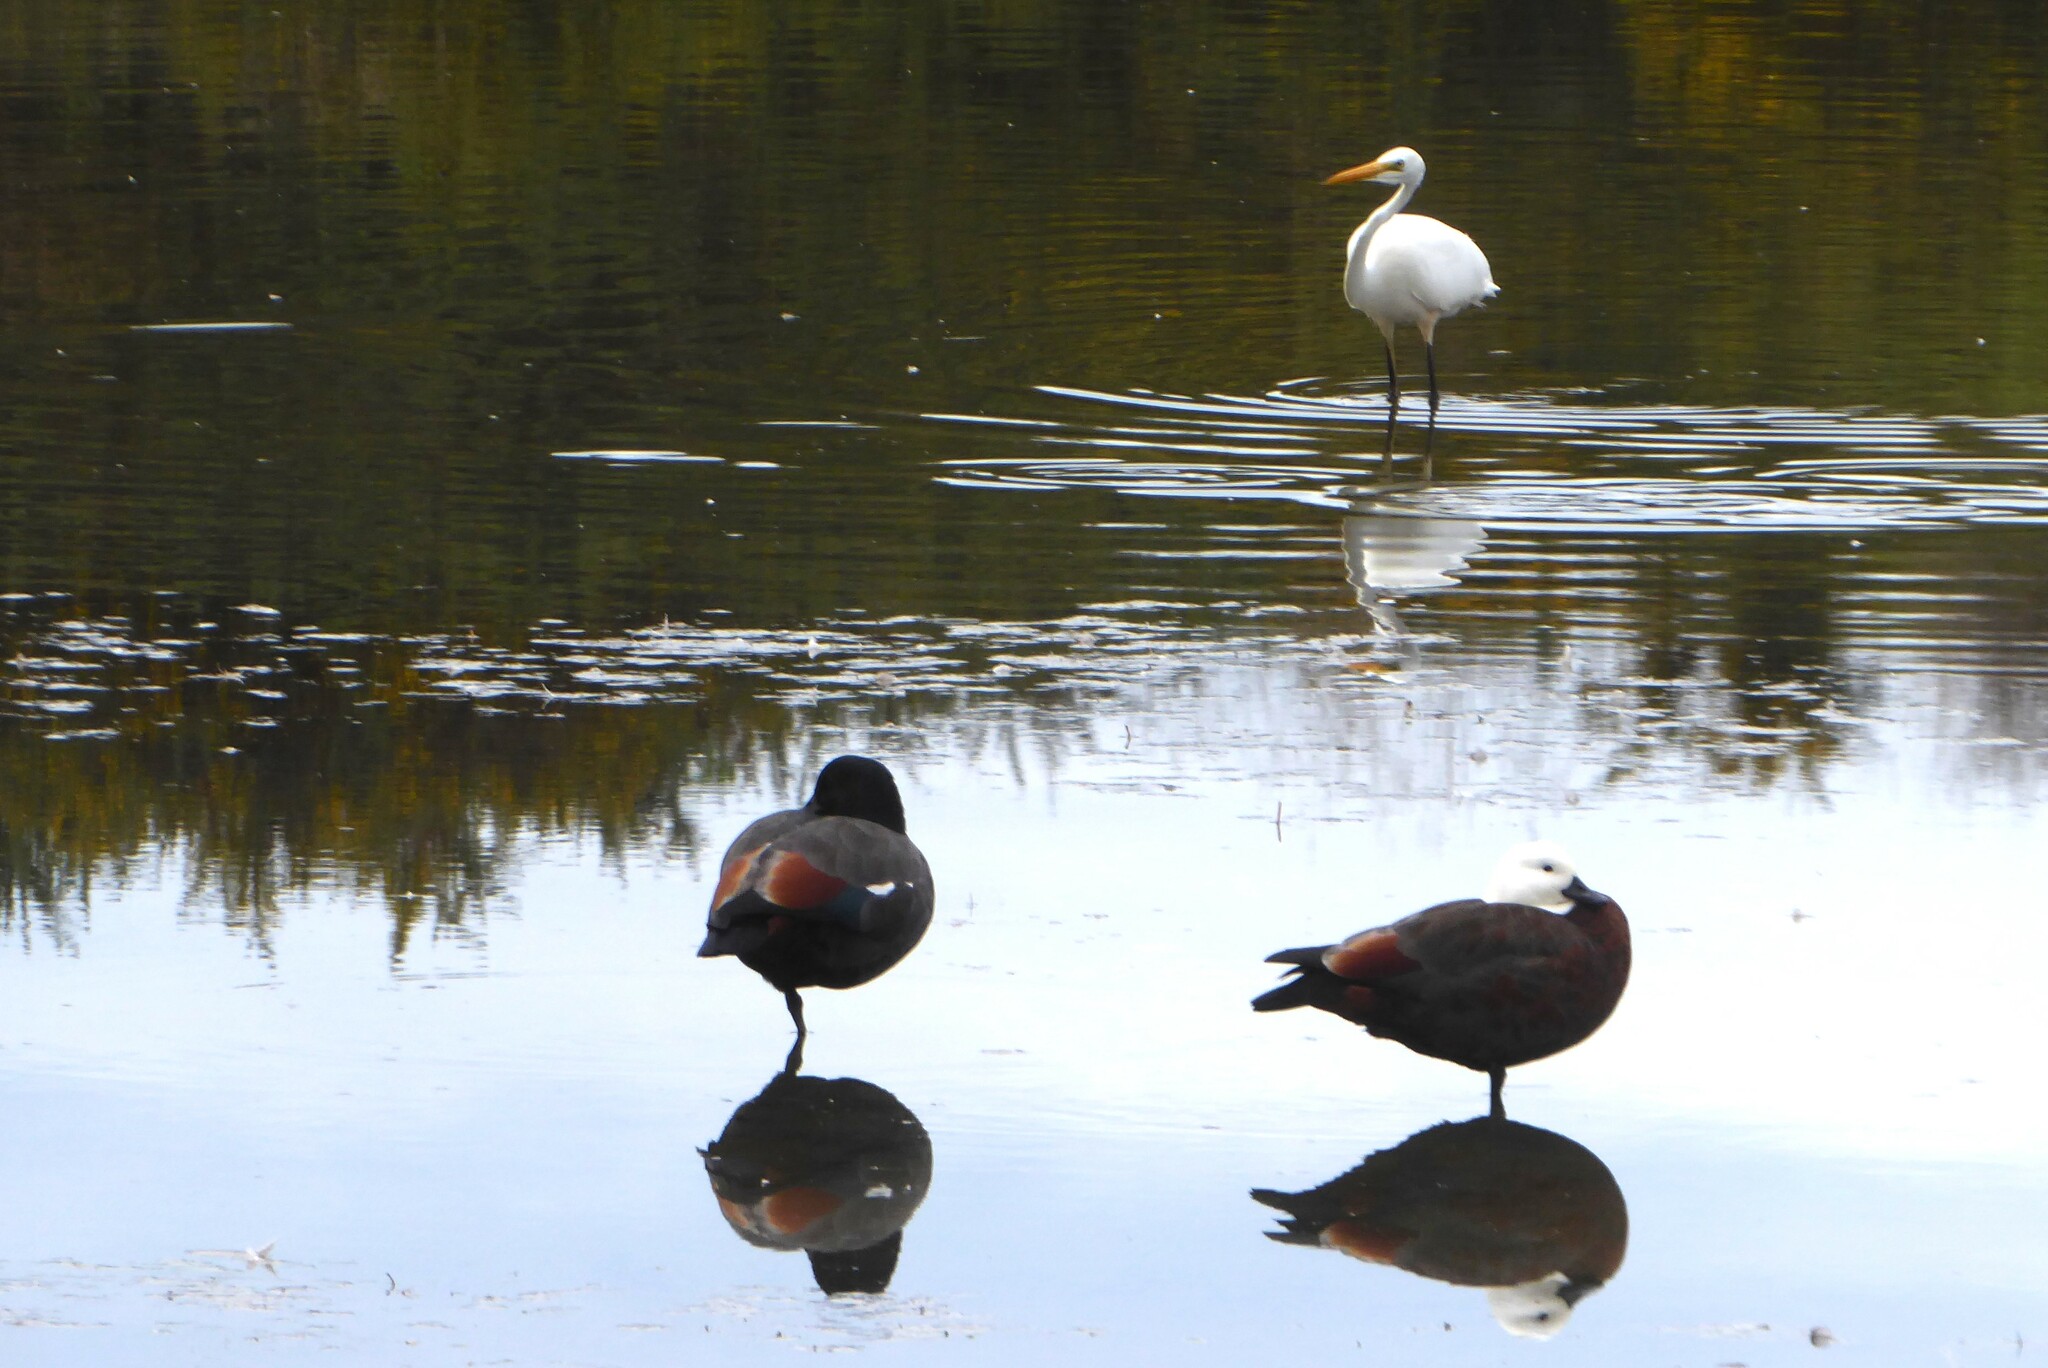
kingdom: Animalia
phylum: Chordata
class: Aves
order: Pelecaniformes
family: Ardeidae
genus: Ardea
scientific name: Ardea modesta
